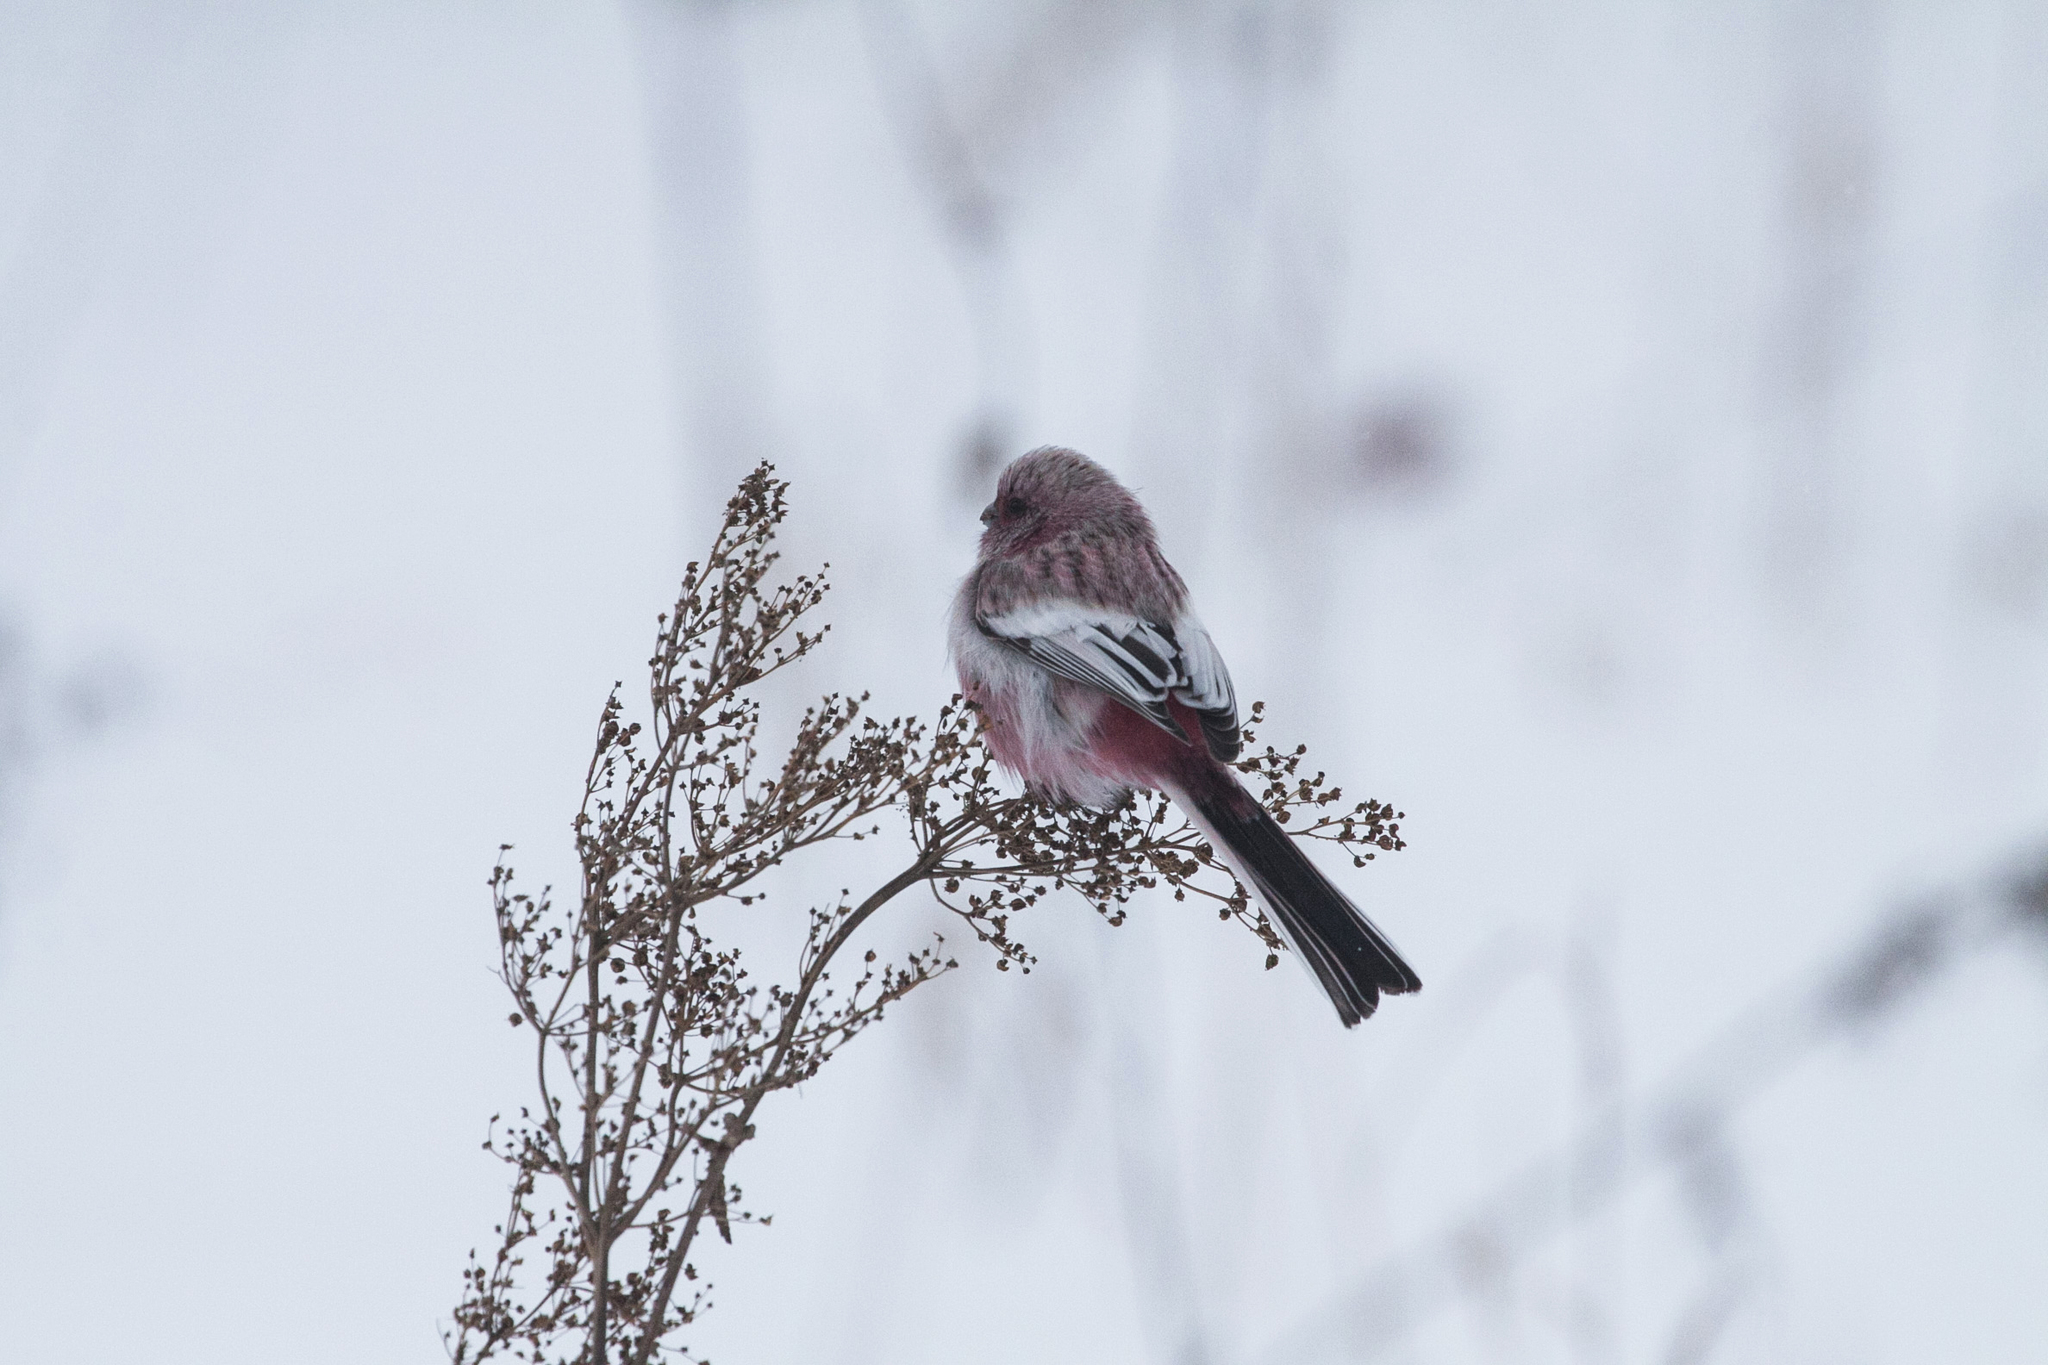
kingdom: Animalia
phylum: Chordata
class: Aves
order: Passeriformes
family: Fringillidae
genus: Carpodacus
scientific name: Carpodacus sibiricus
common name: Long-tailed rosefinch
